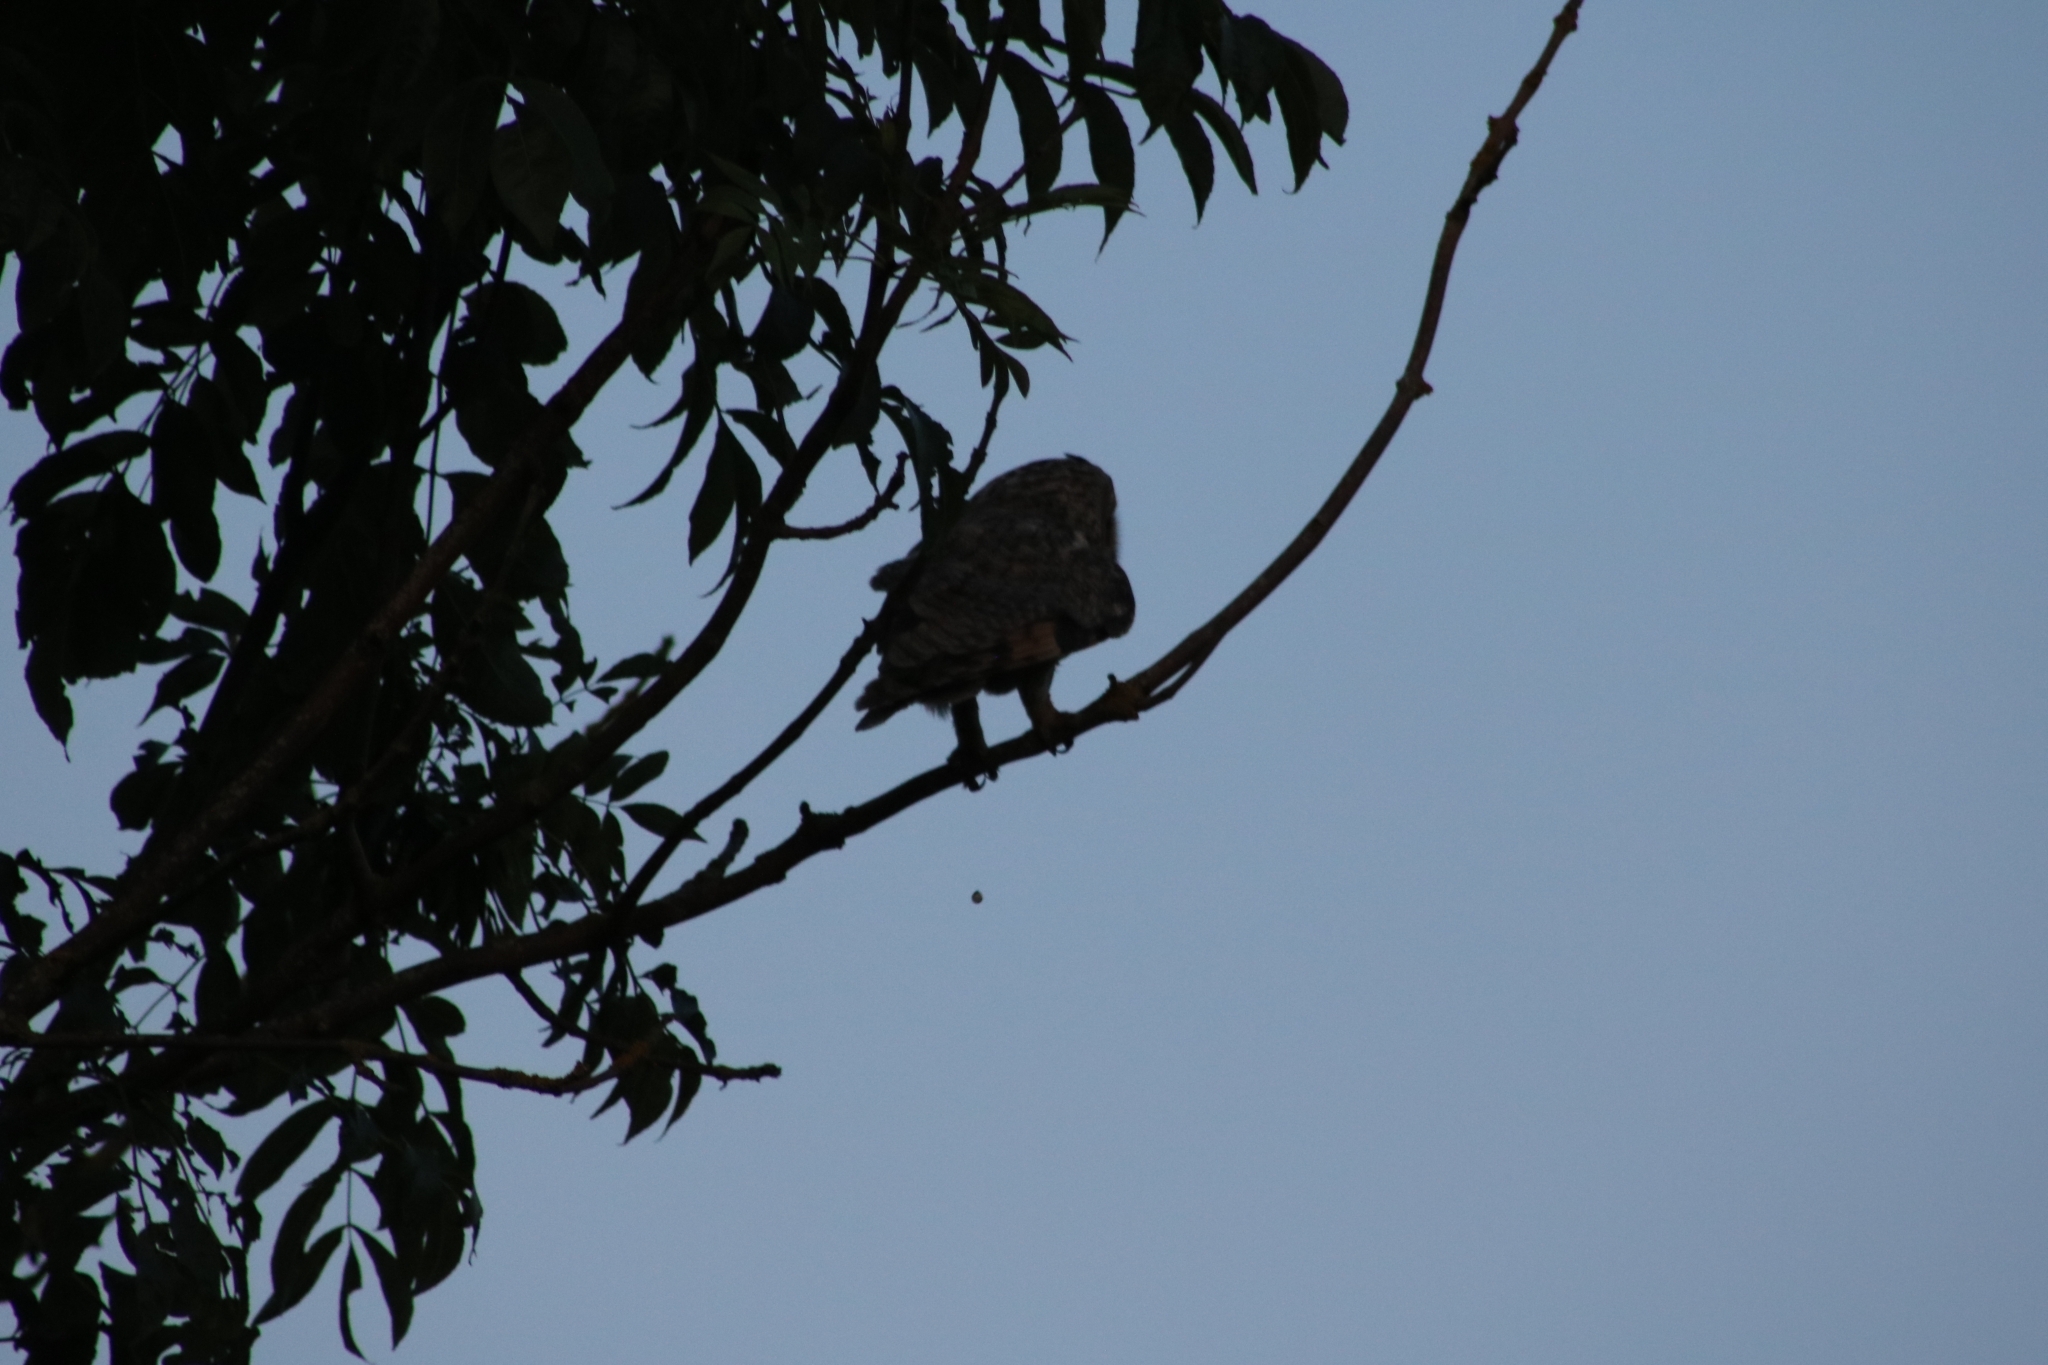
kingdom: Animalia
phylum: Chordata
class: Aves
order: Strigiformes
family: Strigidae
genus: Asio
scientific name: Asio otus
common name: Long-eared owl
